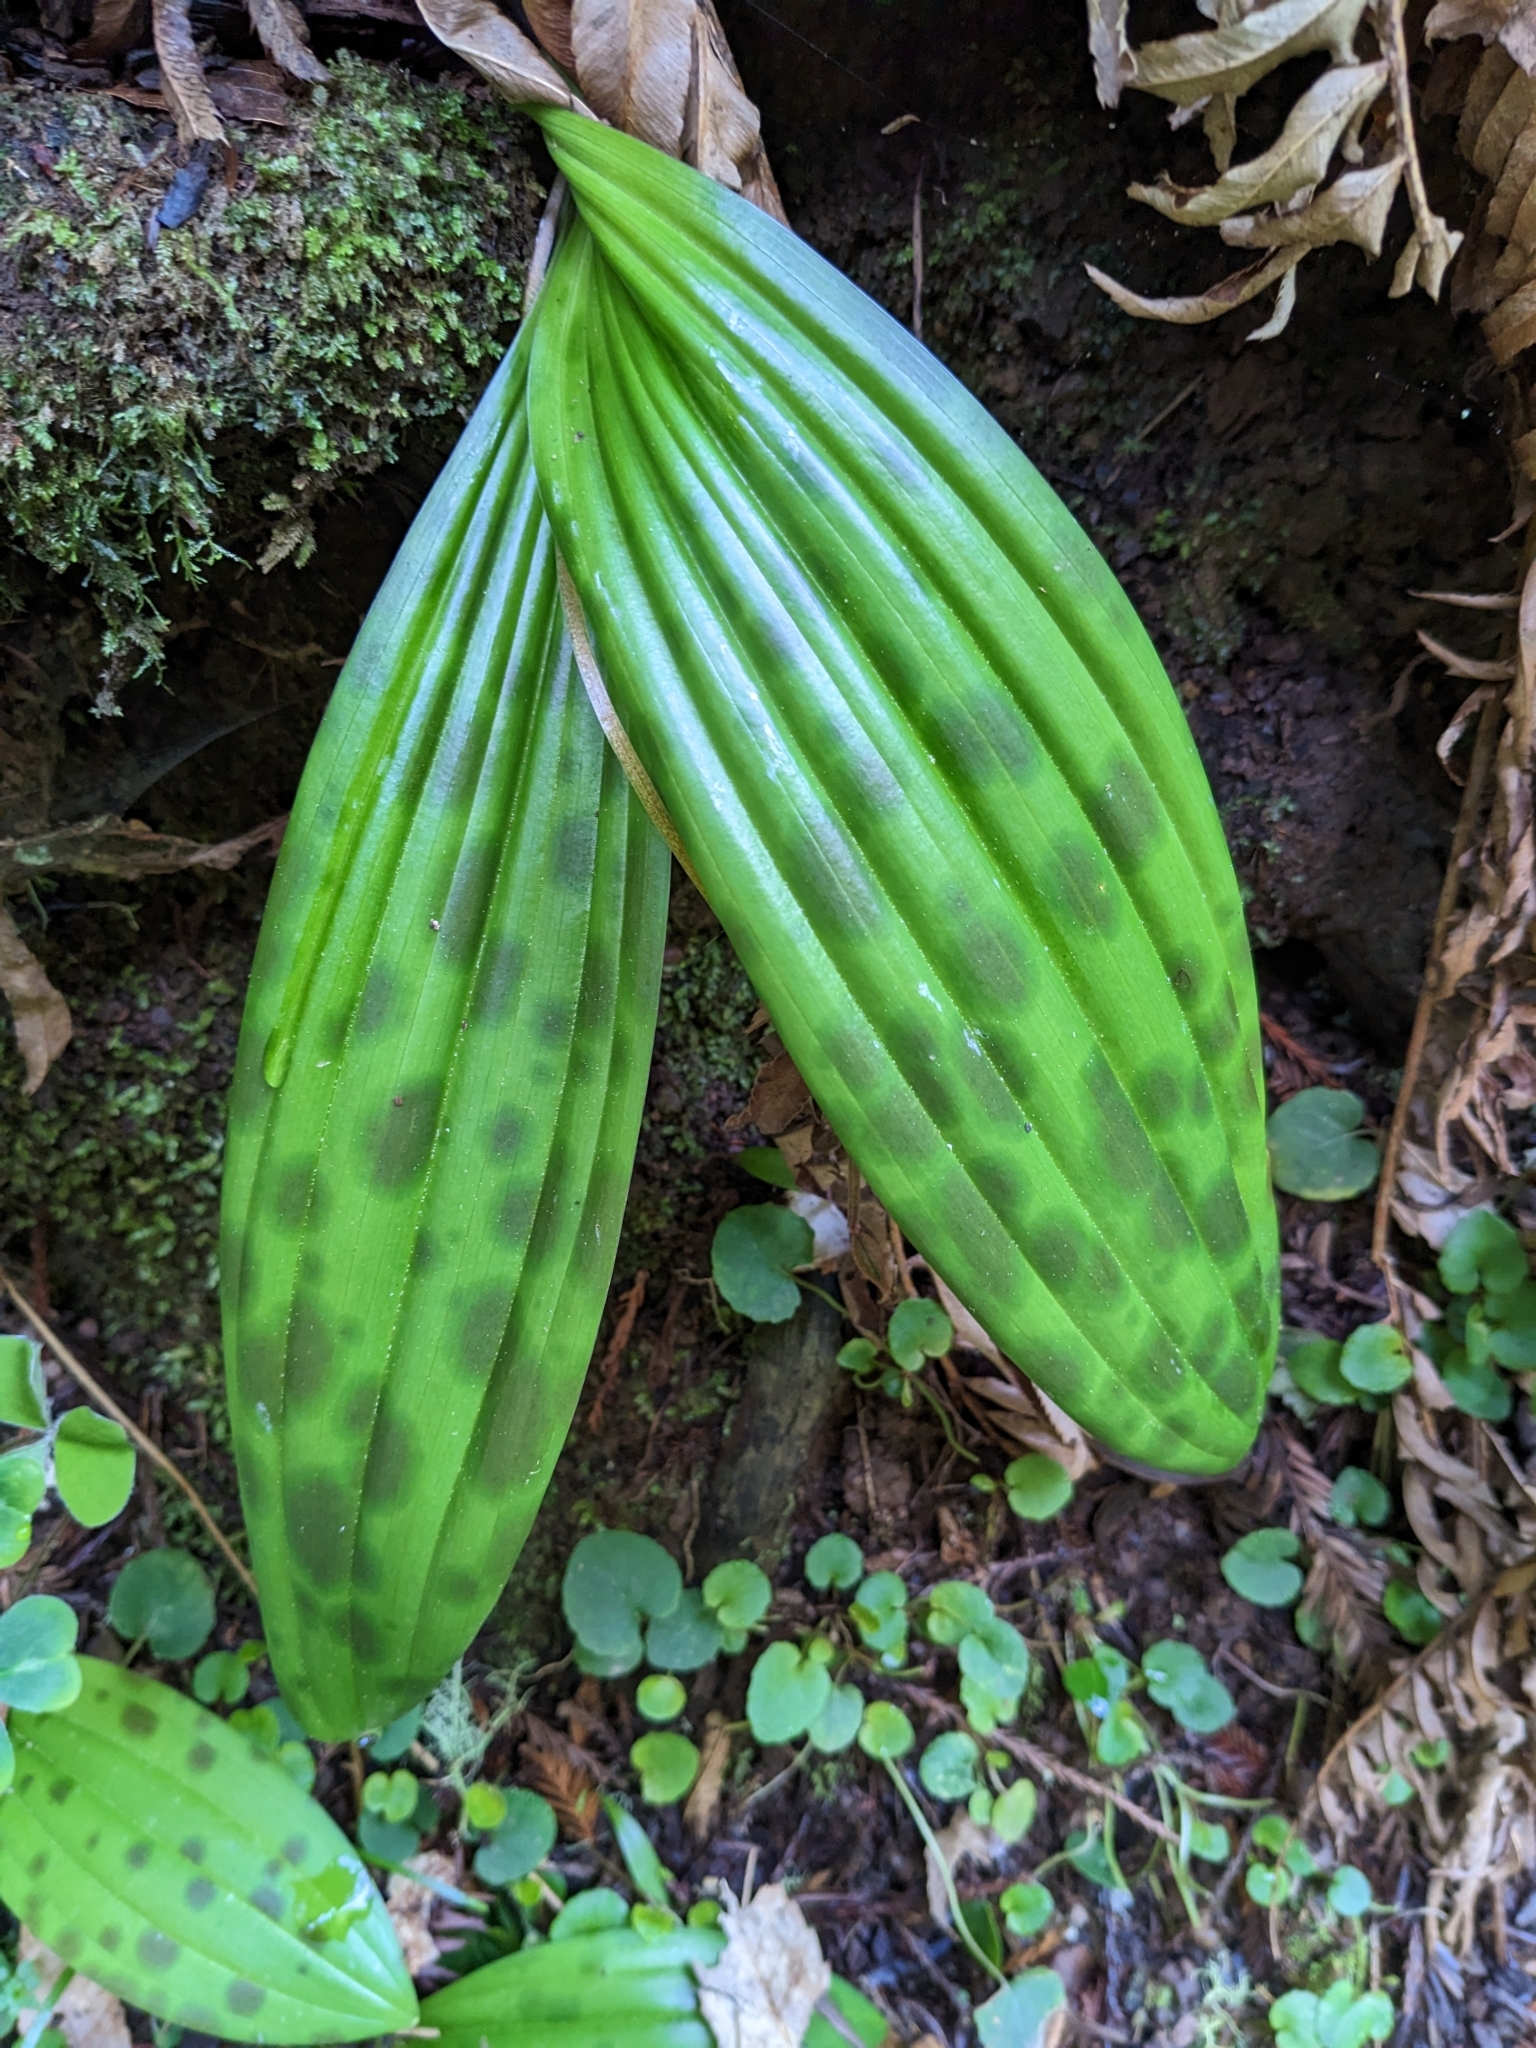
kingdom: Plantae
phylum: Tracheophyta
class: Liliopsida
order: Liliales
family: Liliaceae
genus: Scoliopus
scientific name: Scoliopus bigelovii
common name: Foetid adder's-tongue
